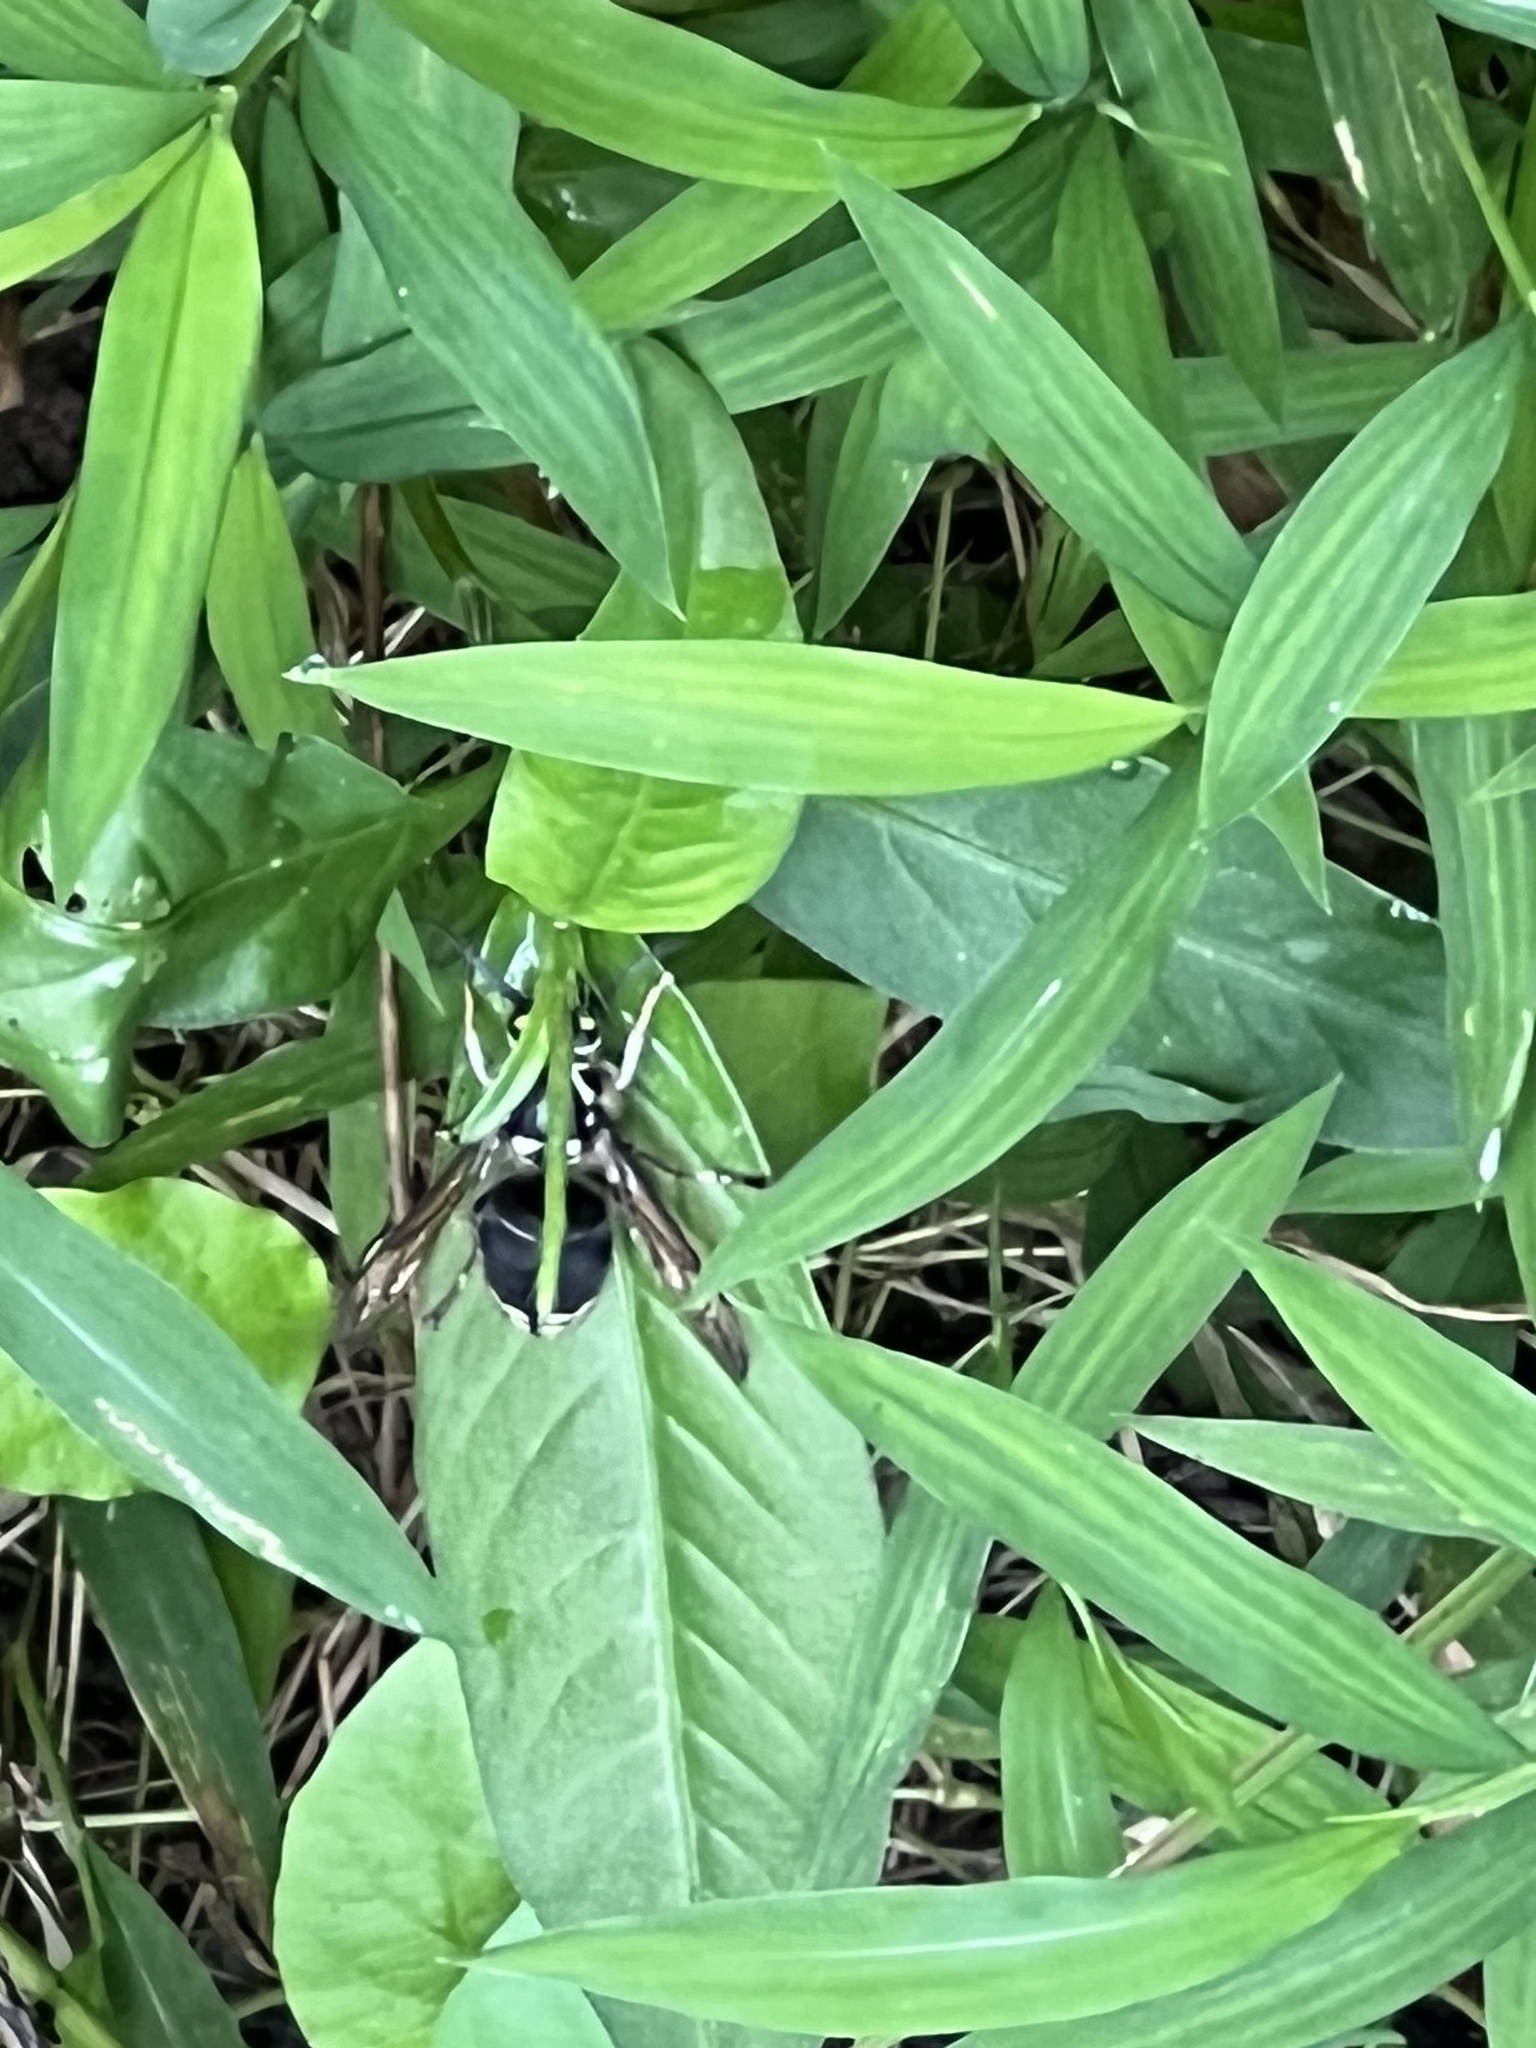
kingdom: Animalia
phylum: Arthropoda
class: Insecta
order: Hymenoptera
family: Vespidae
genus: Dolichovespula
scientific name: Dolichovespula maculata
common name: Bald-faced hornet
